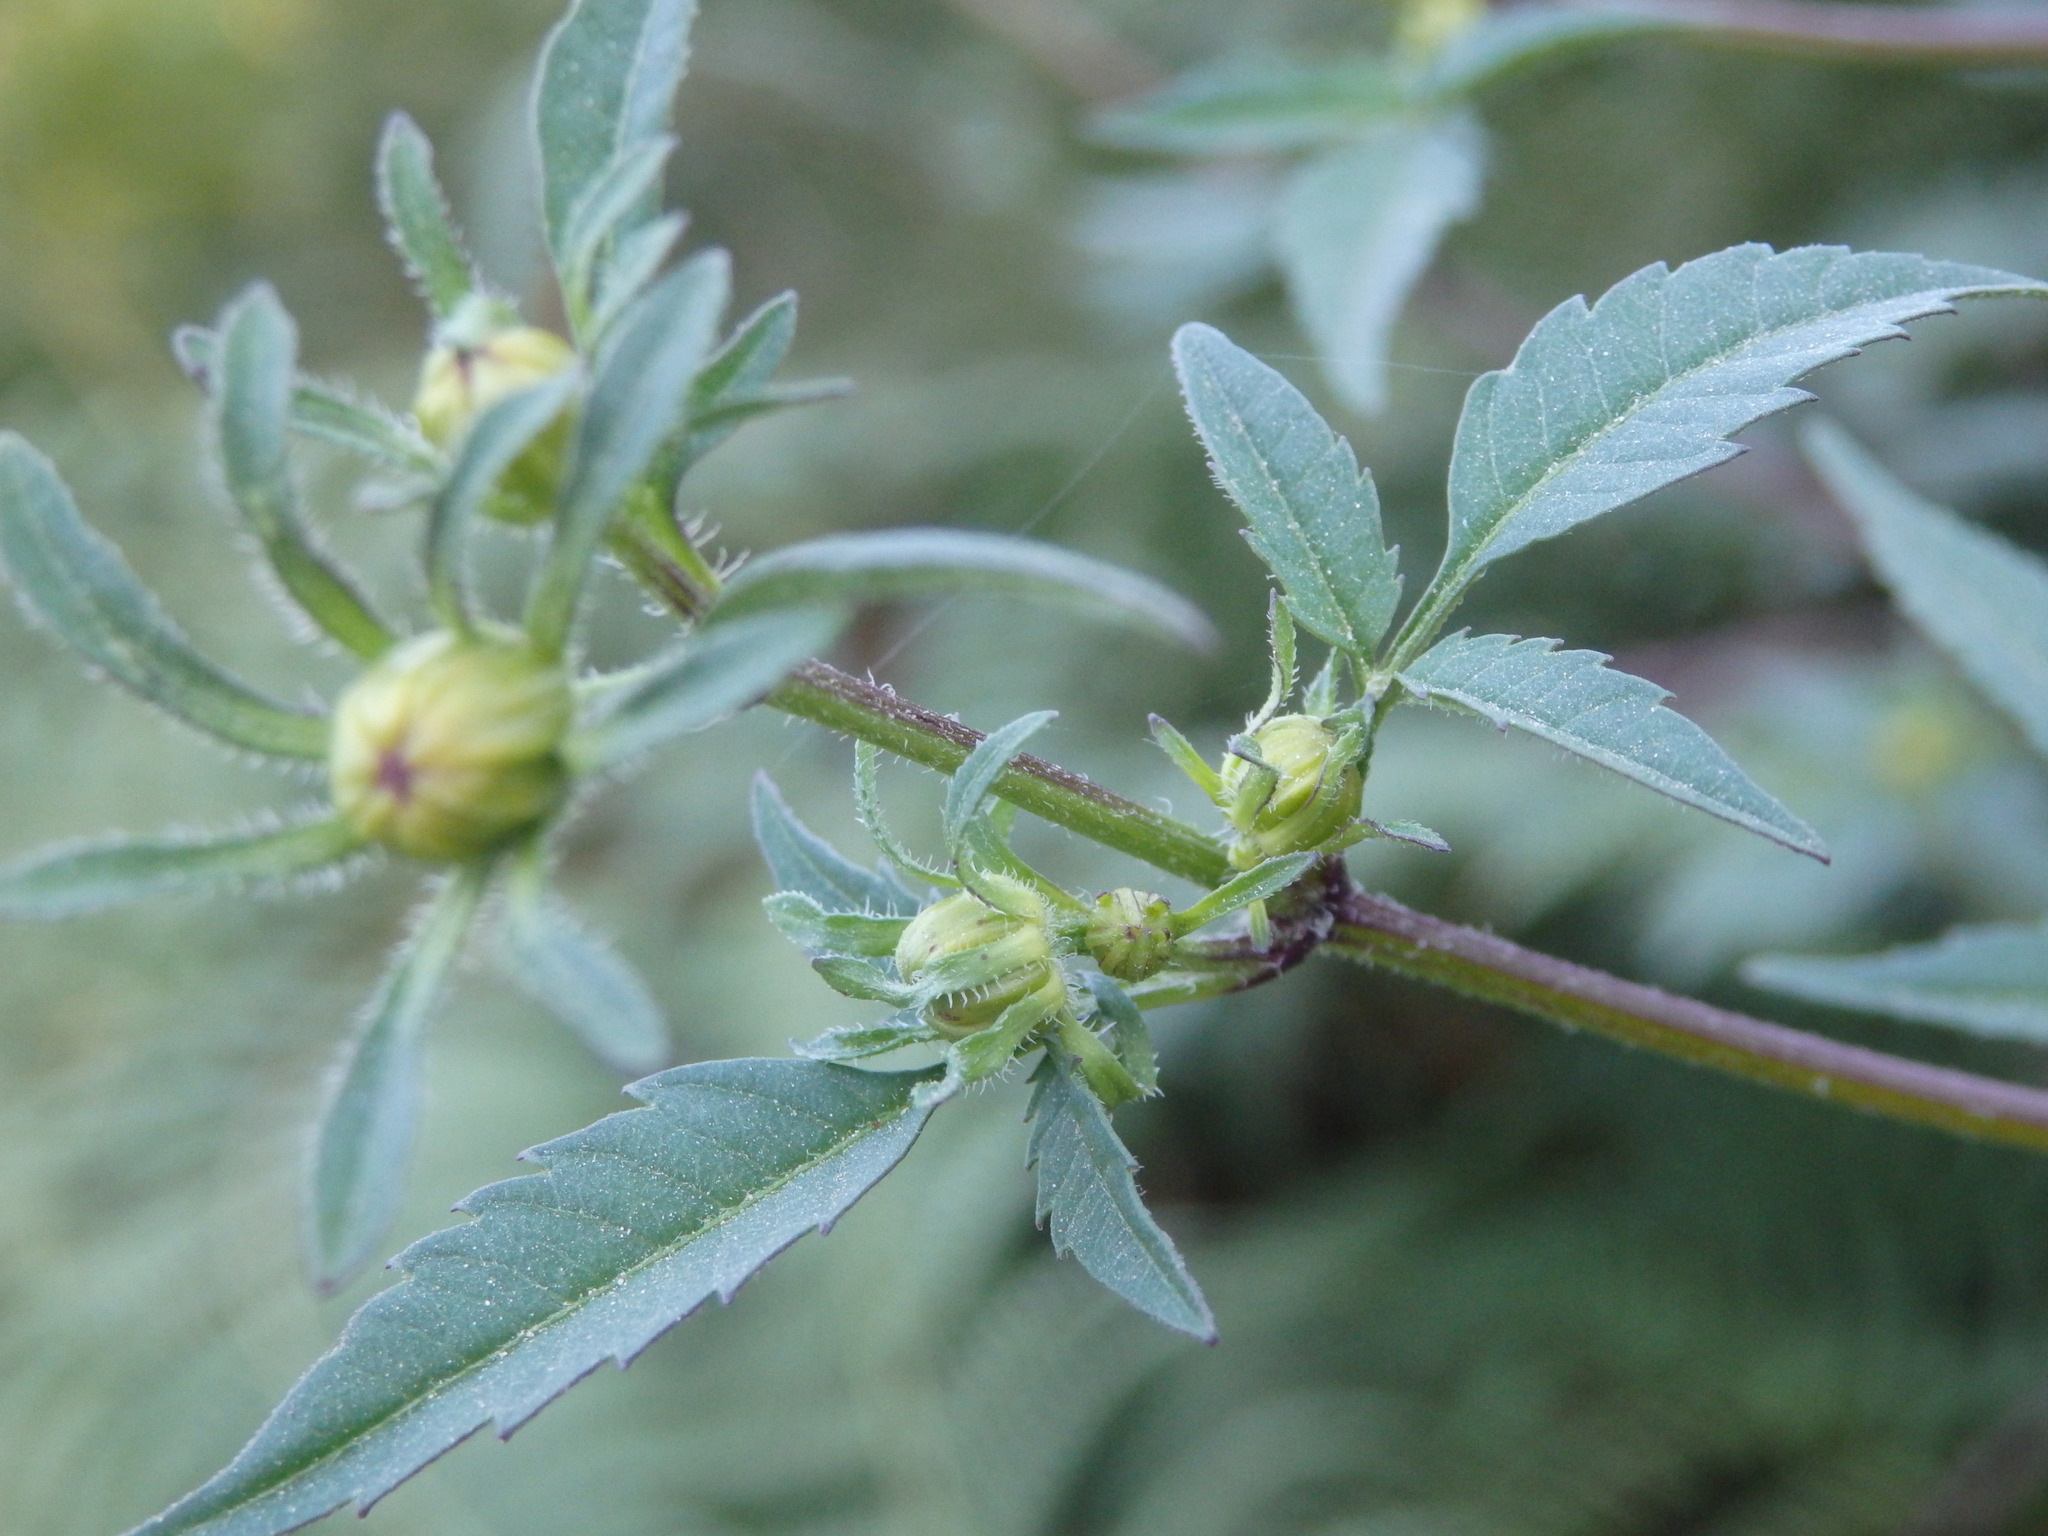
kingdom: Plantae
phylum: Tracheophyta
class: Magnoliopsida
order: Asterales
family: Asteraceae
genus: Bidens
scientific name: Bidens frondosa
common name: Beggarticks
